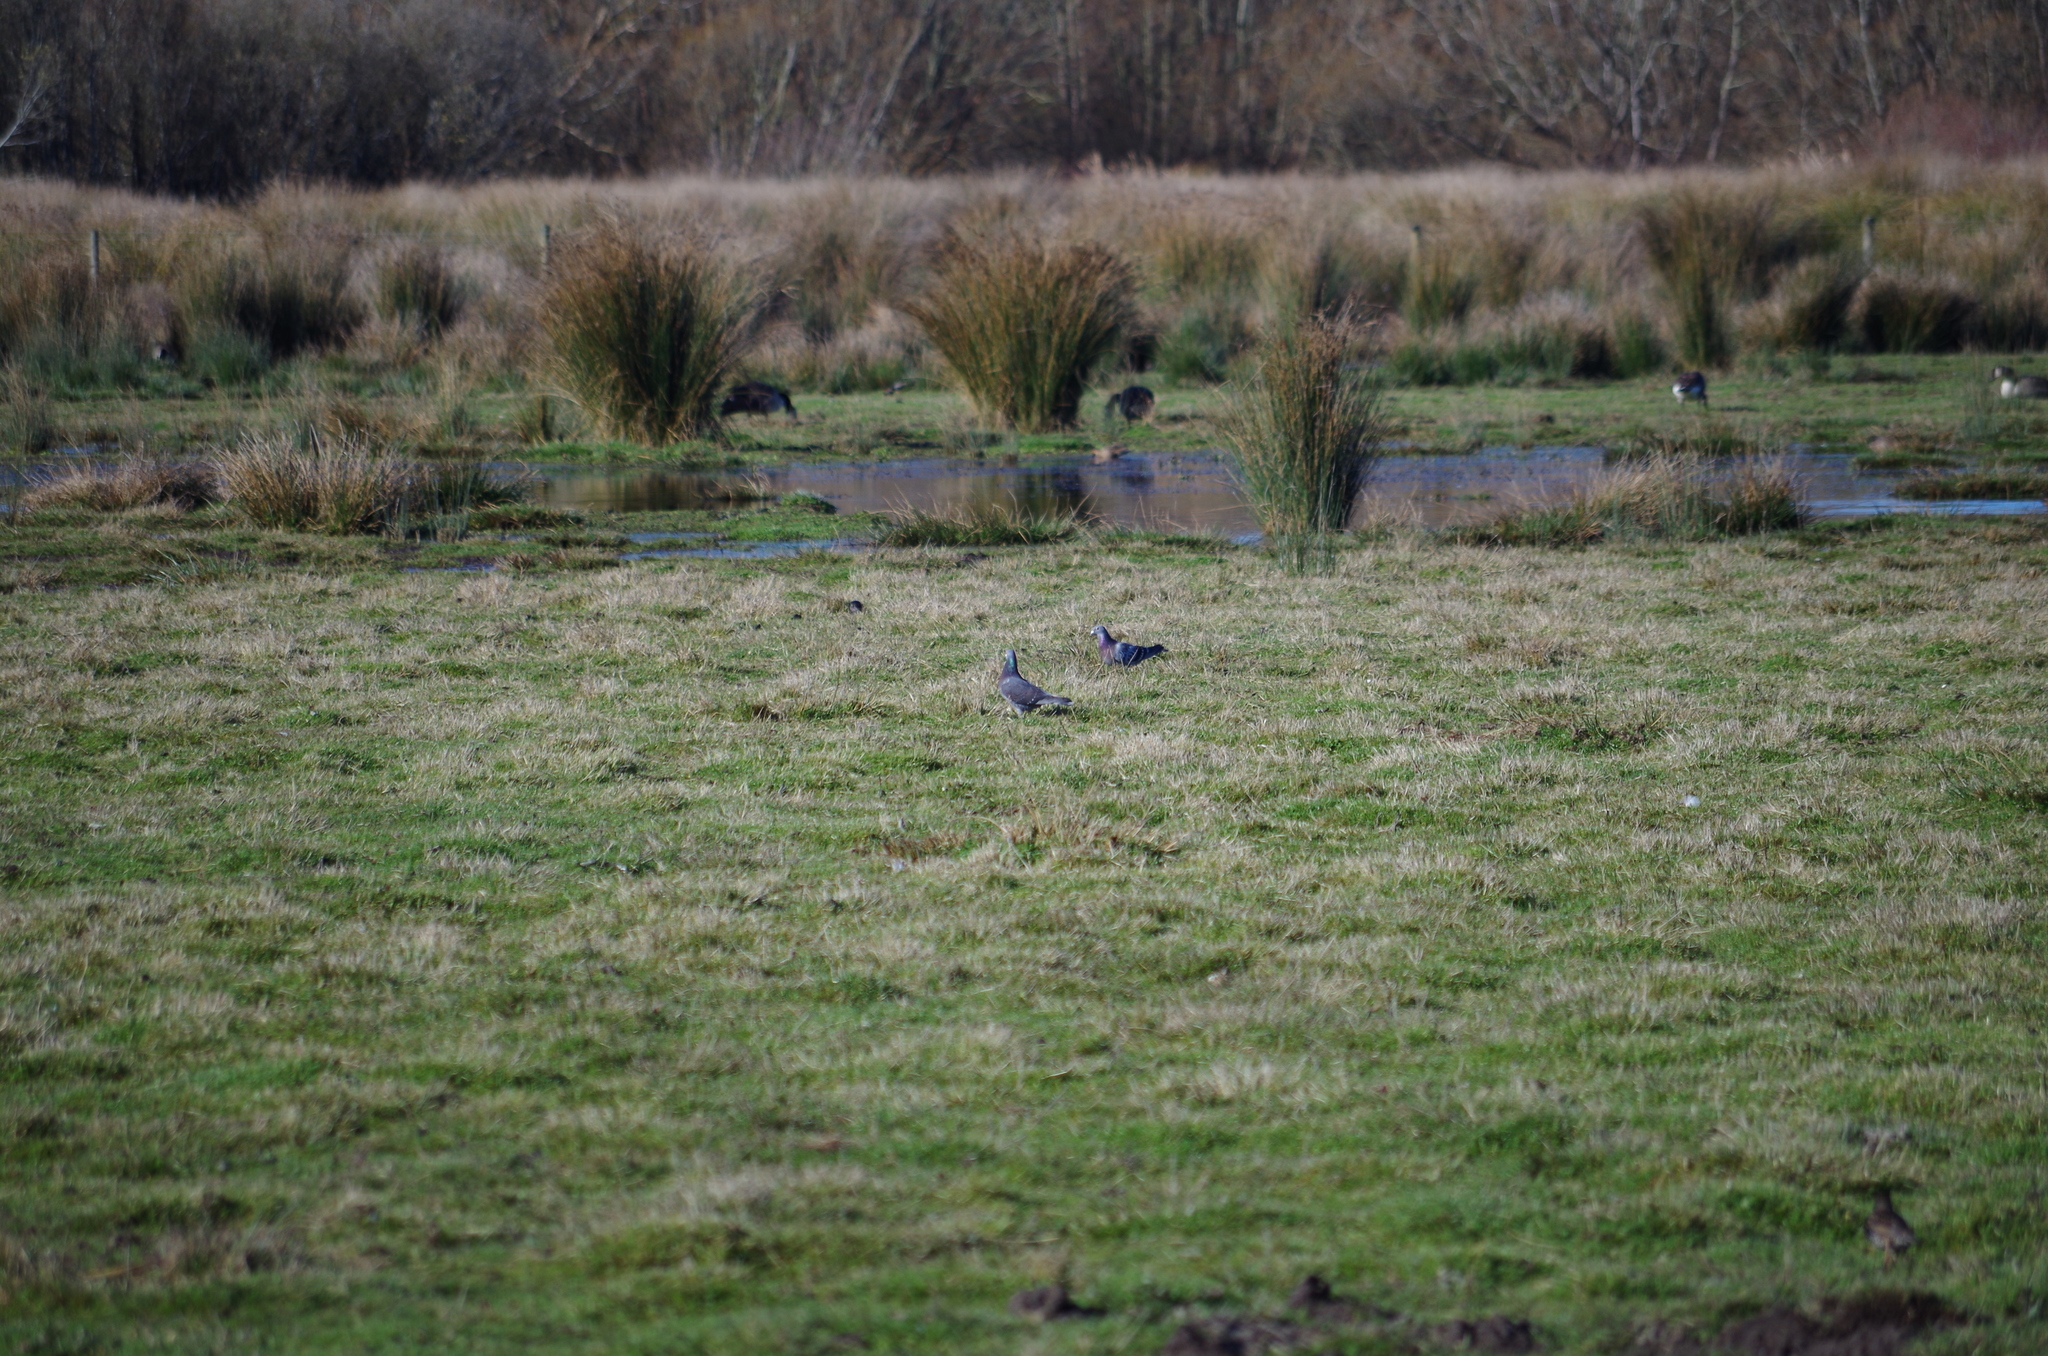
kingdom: Animalia
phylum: Chordata
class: Aves
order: Columbiformes
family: Columbidae
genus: Columba
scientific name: Columba livia
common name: Rock pigeon
